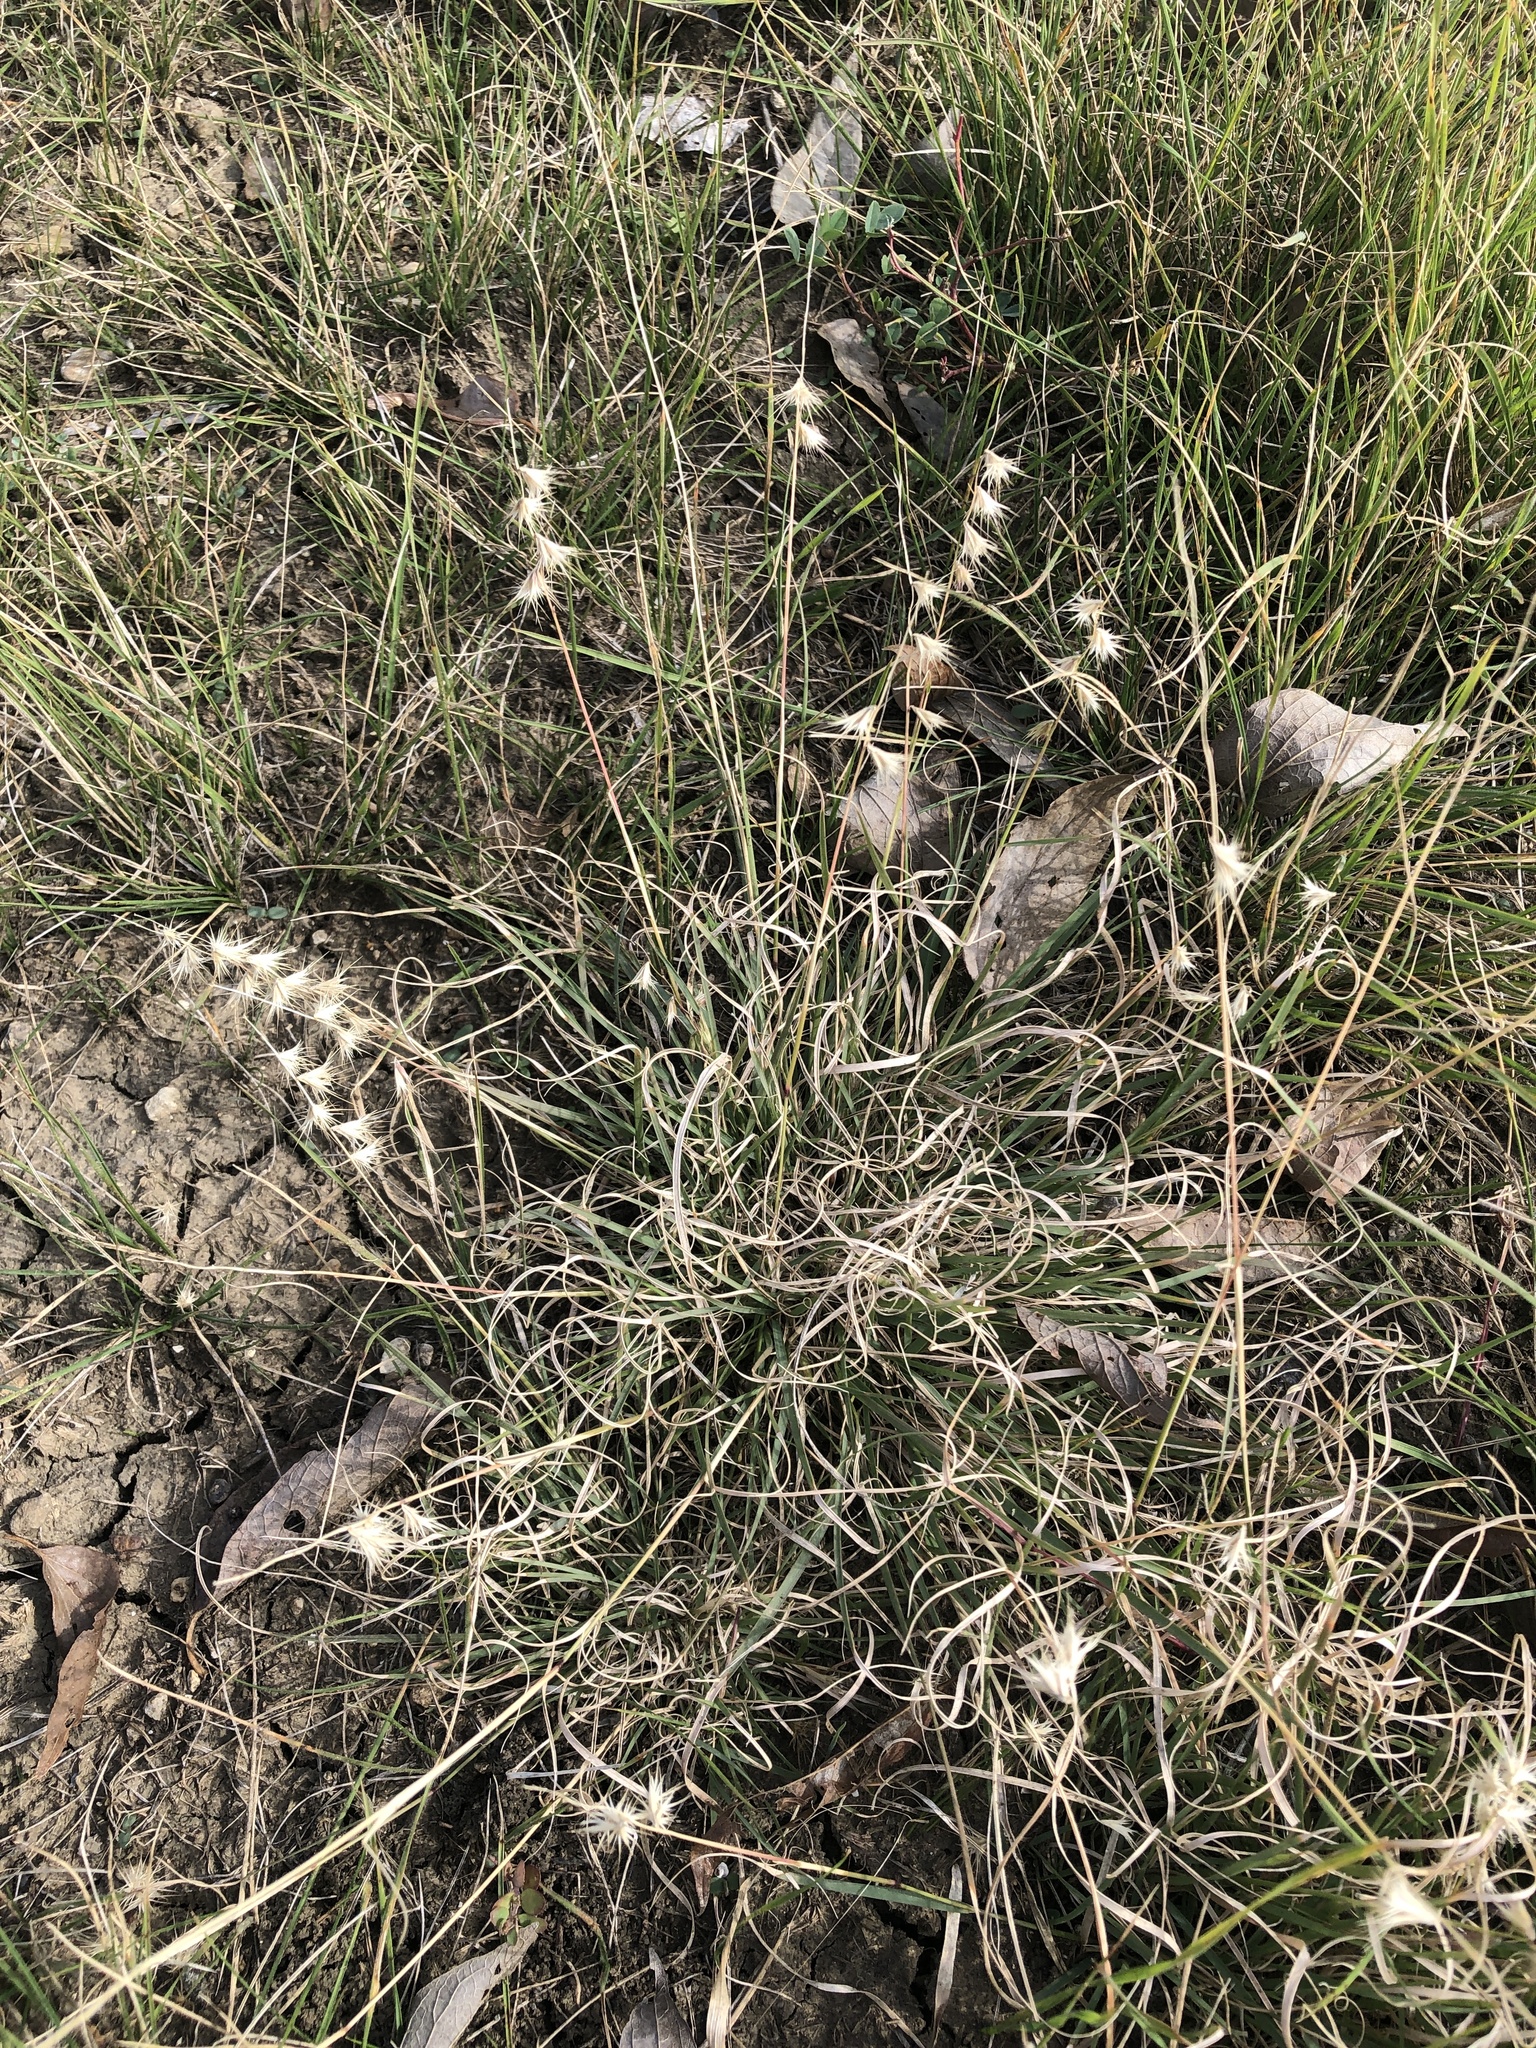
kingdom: Plantae
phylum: Tracheophyta
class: Liliopsida
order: Poales
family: Poaceae
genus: Bouteloua
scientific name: Bouteloua rigidiseta
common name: Texas grama
